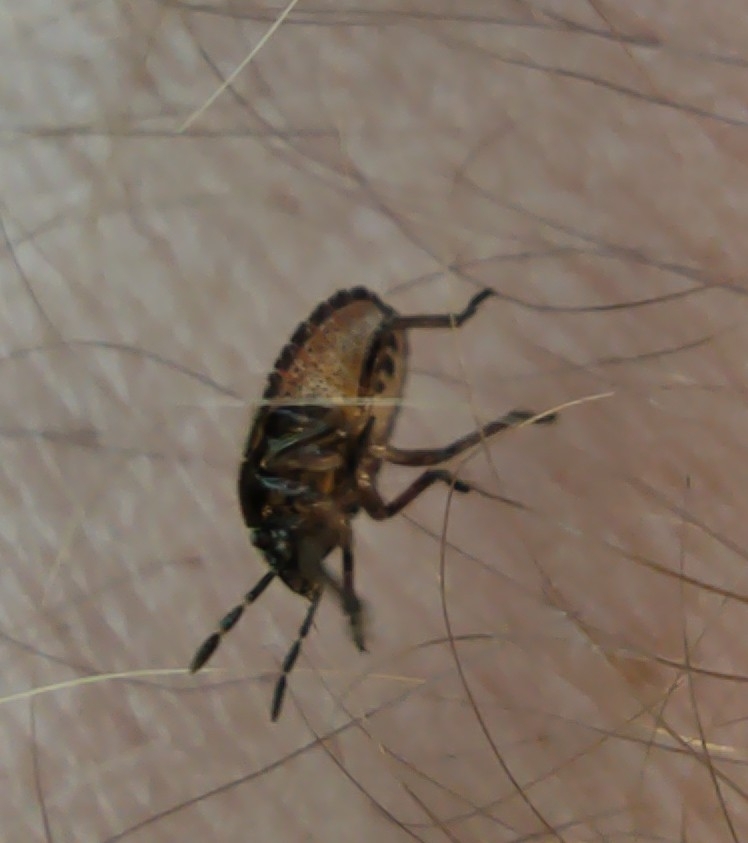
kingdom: Animalia
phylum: Arthropoda
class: Insecta
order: Hemiptera
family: Pentatomidae
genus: Dolycoris
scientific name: Dolycoris baccarum
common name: Sloe bug
